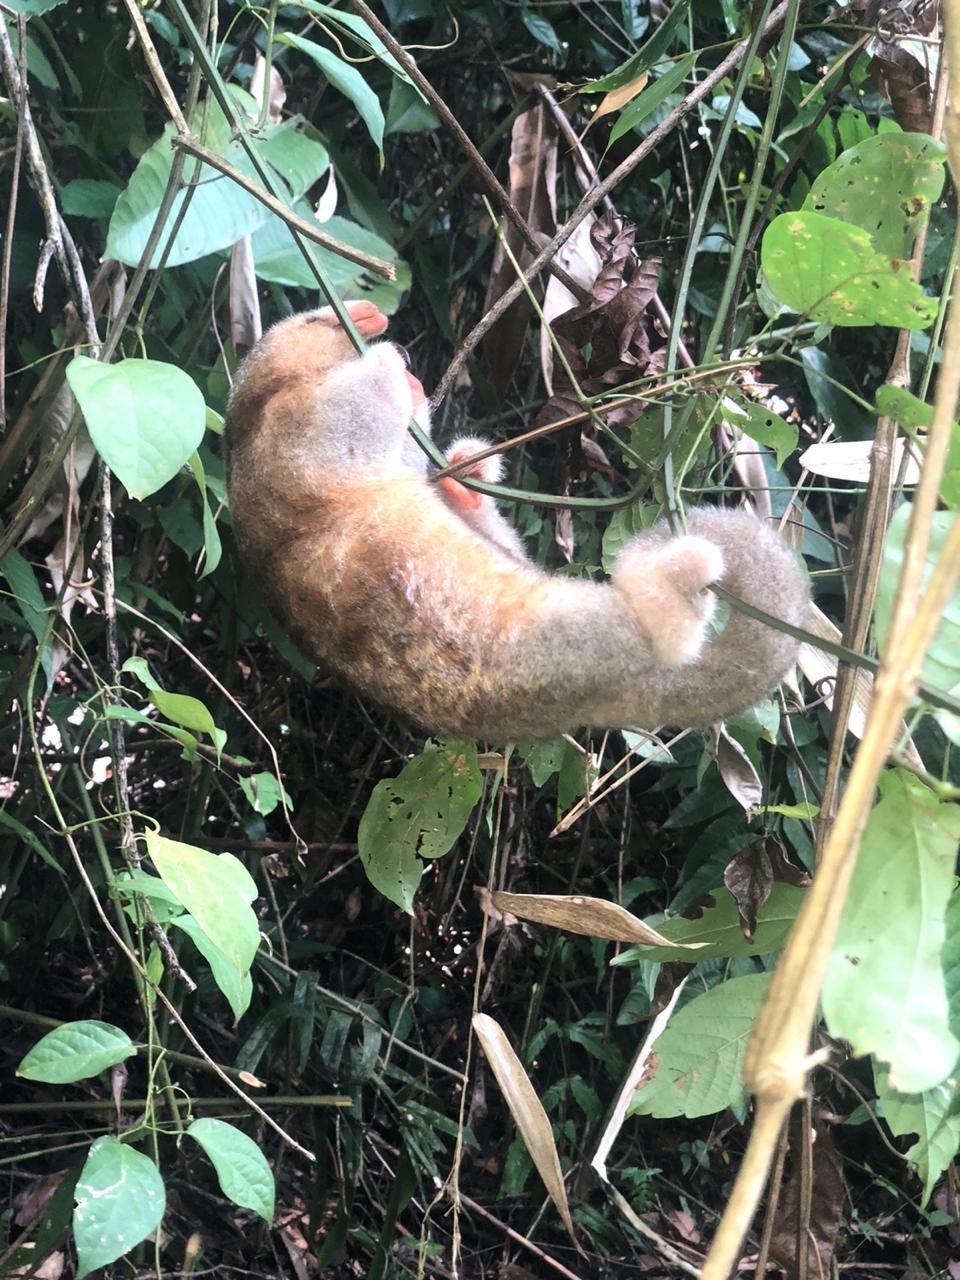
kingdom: Animalia
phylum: Chordata
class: Mammalia
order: Pilosa
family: Cyclopedidae
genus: Cyclopes
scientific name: Cyclopes didactylus
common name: Silky anteater
